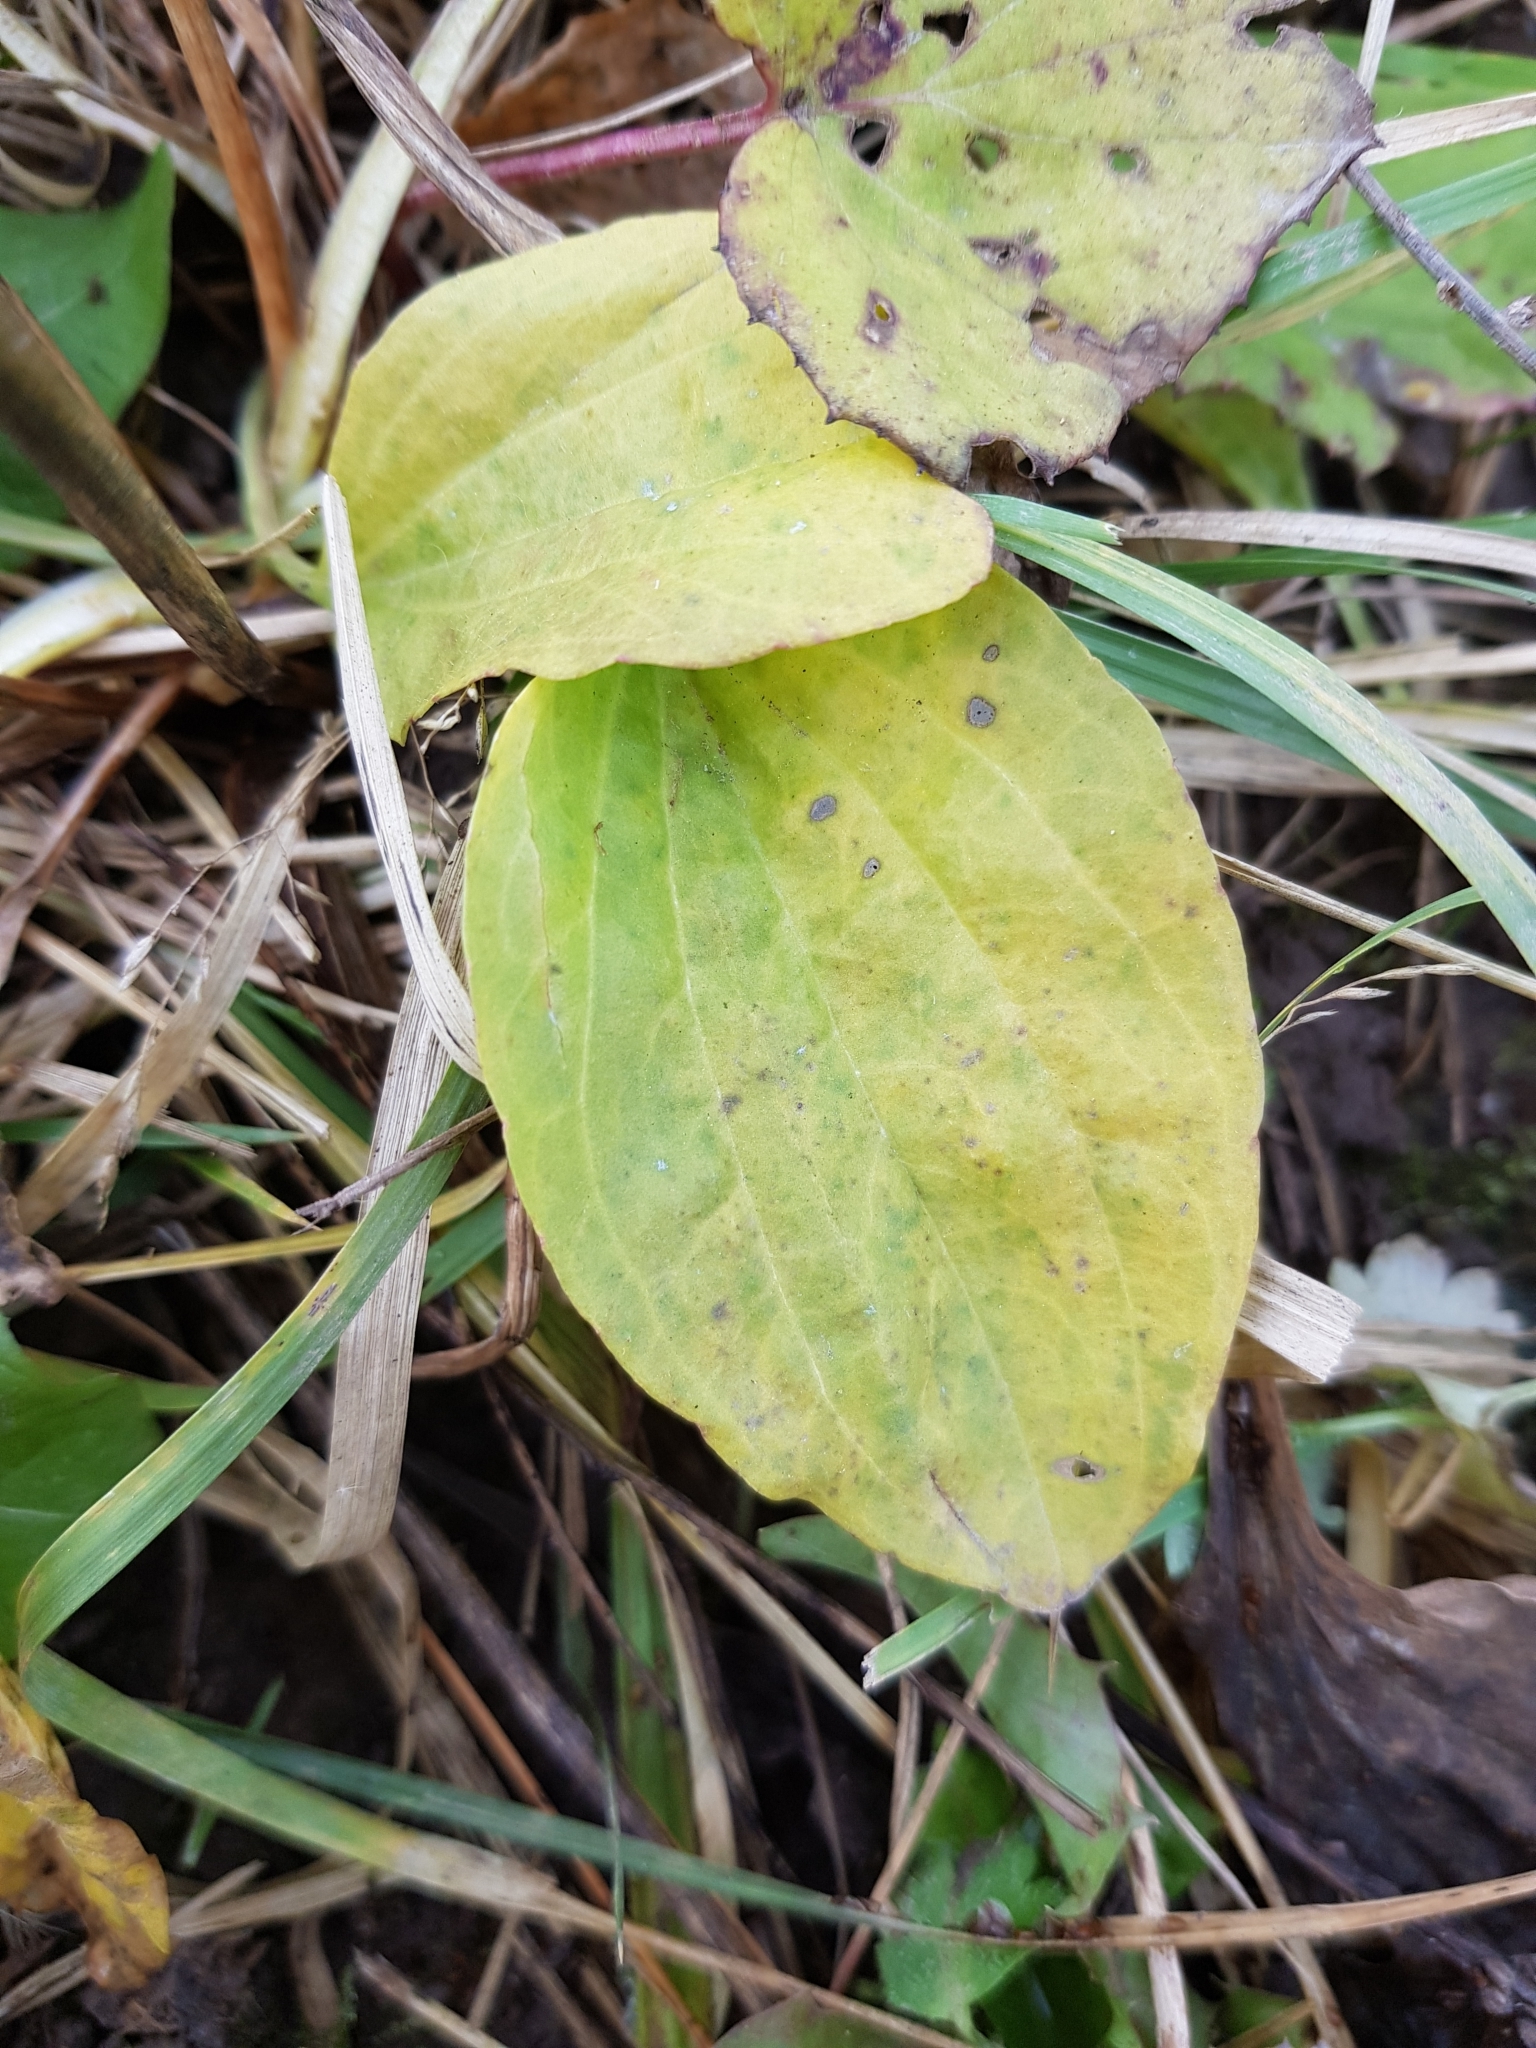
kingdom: Plantae
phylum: Tracheophyta
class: Magnoliopsida
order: Lamiales
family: Plantaginaceae
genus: Plantago
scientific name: Plantago major
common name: Common plantain
